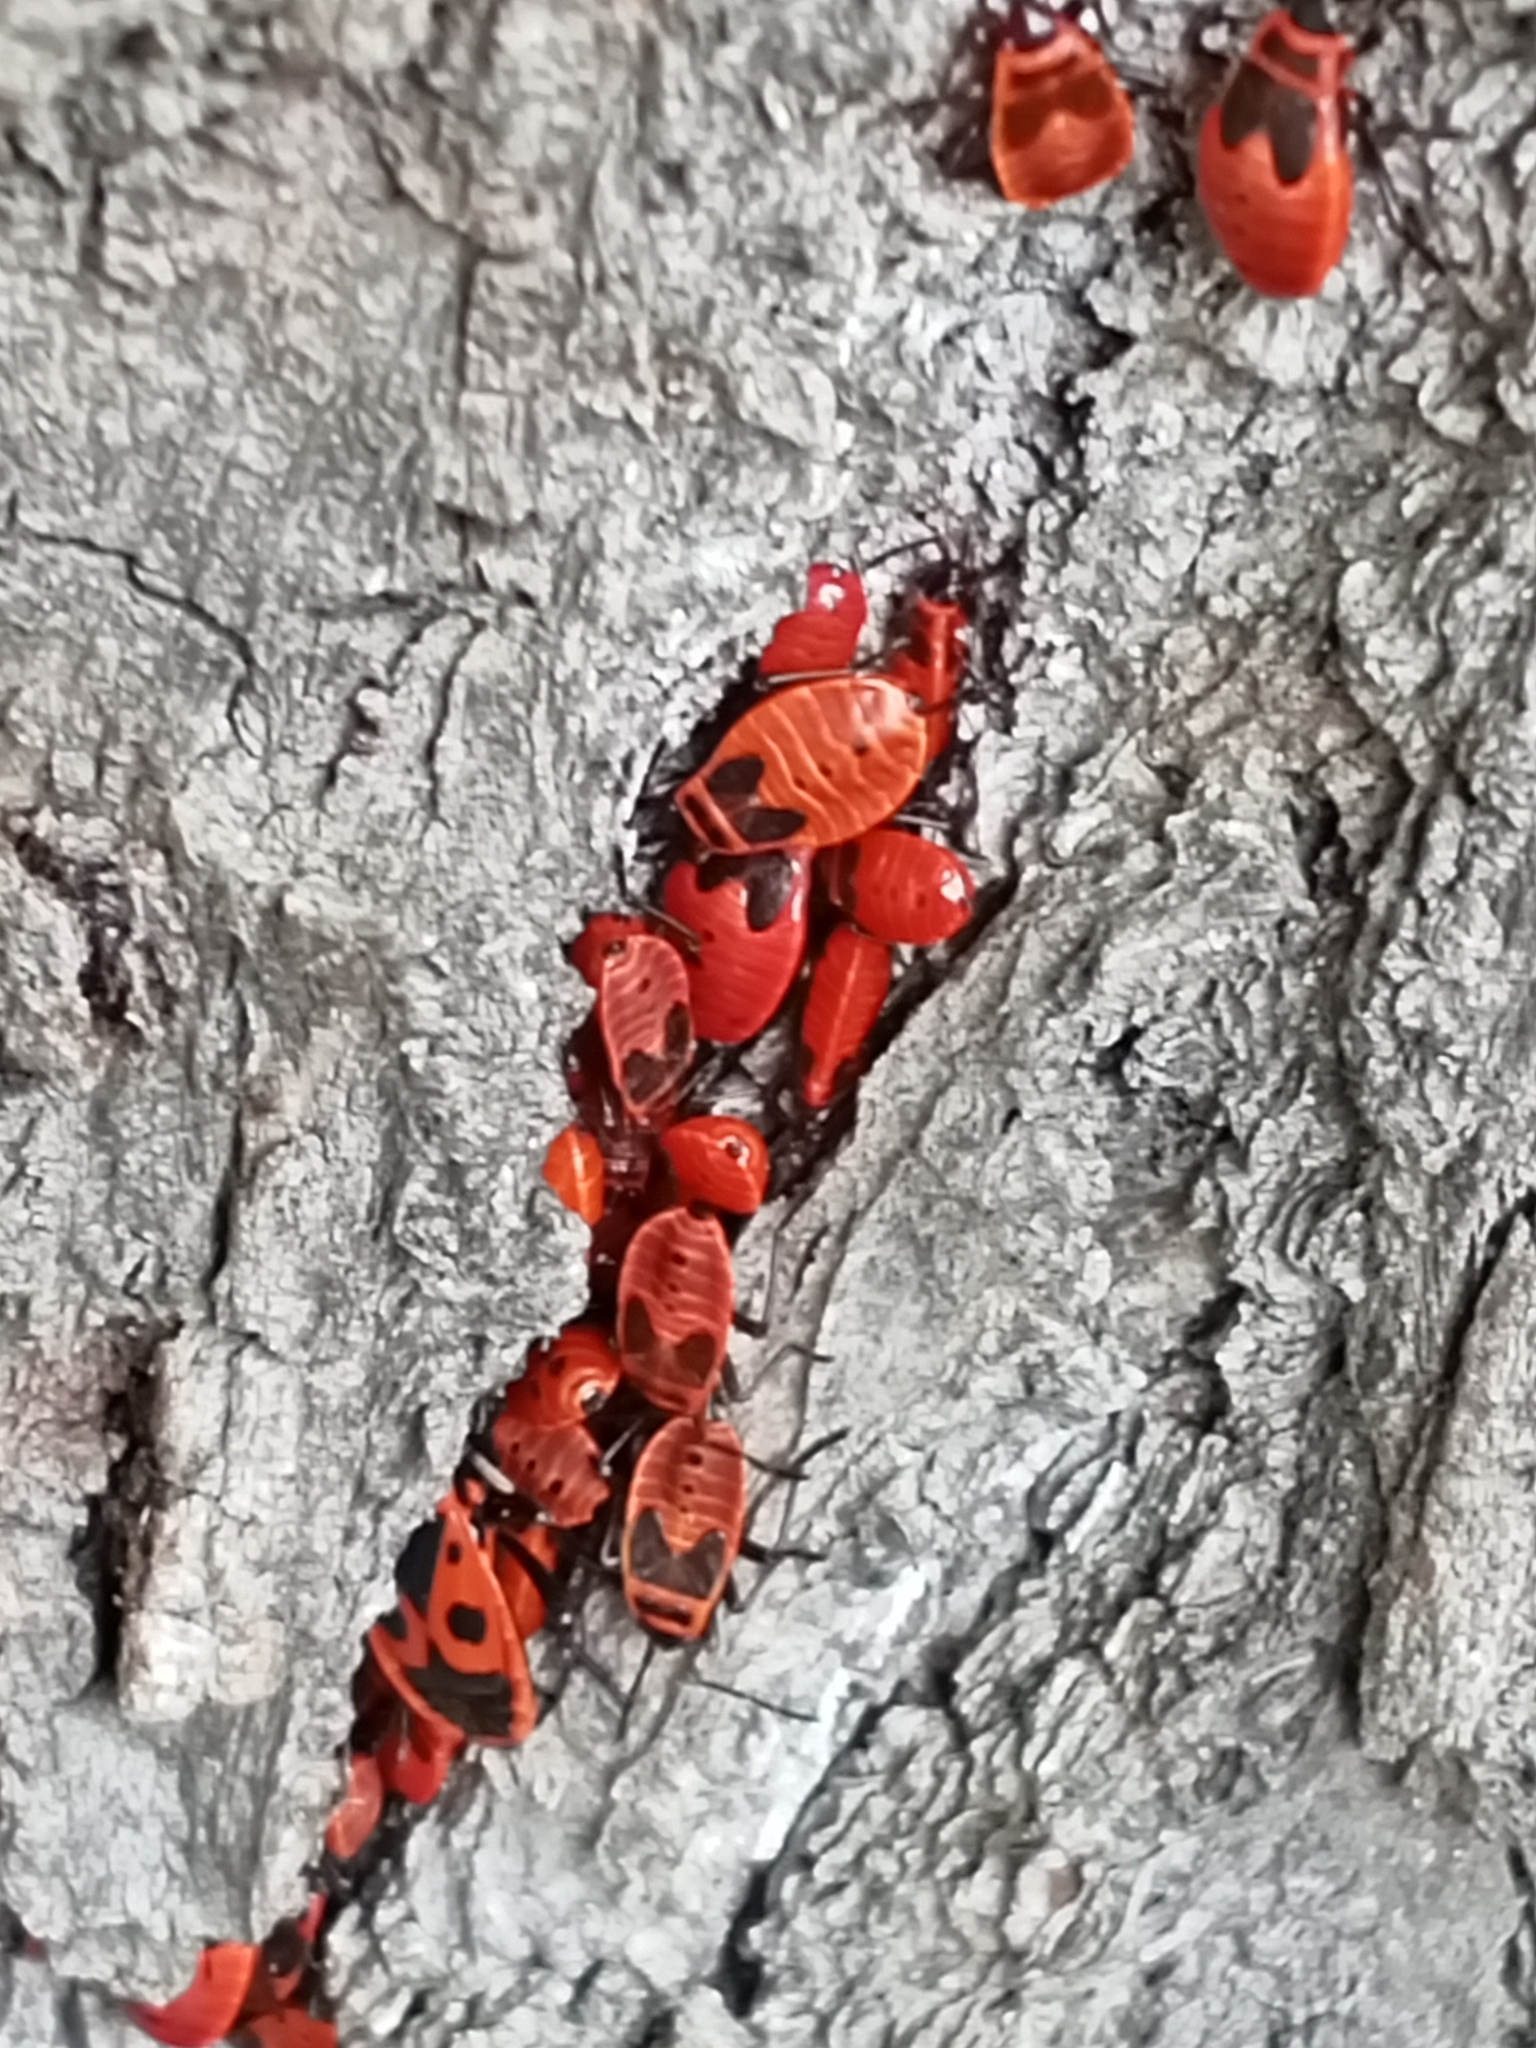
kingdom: Animalia
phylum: Arthropoda
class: Insecta
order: Hemiptera
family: Pyrrhocoridae
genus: Pyrrhocoris
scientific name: Pyrrhocoris apterus
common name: Firebug
